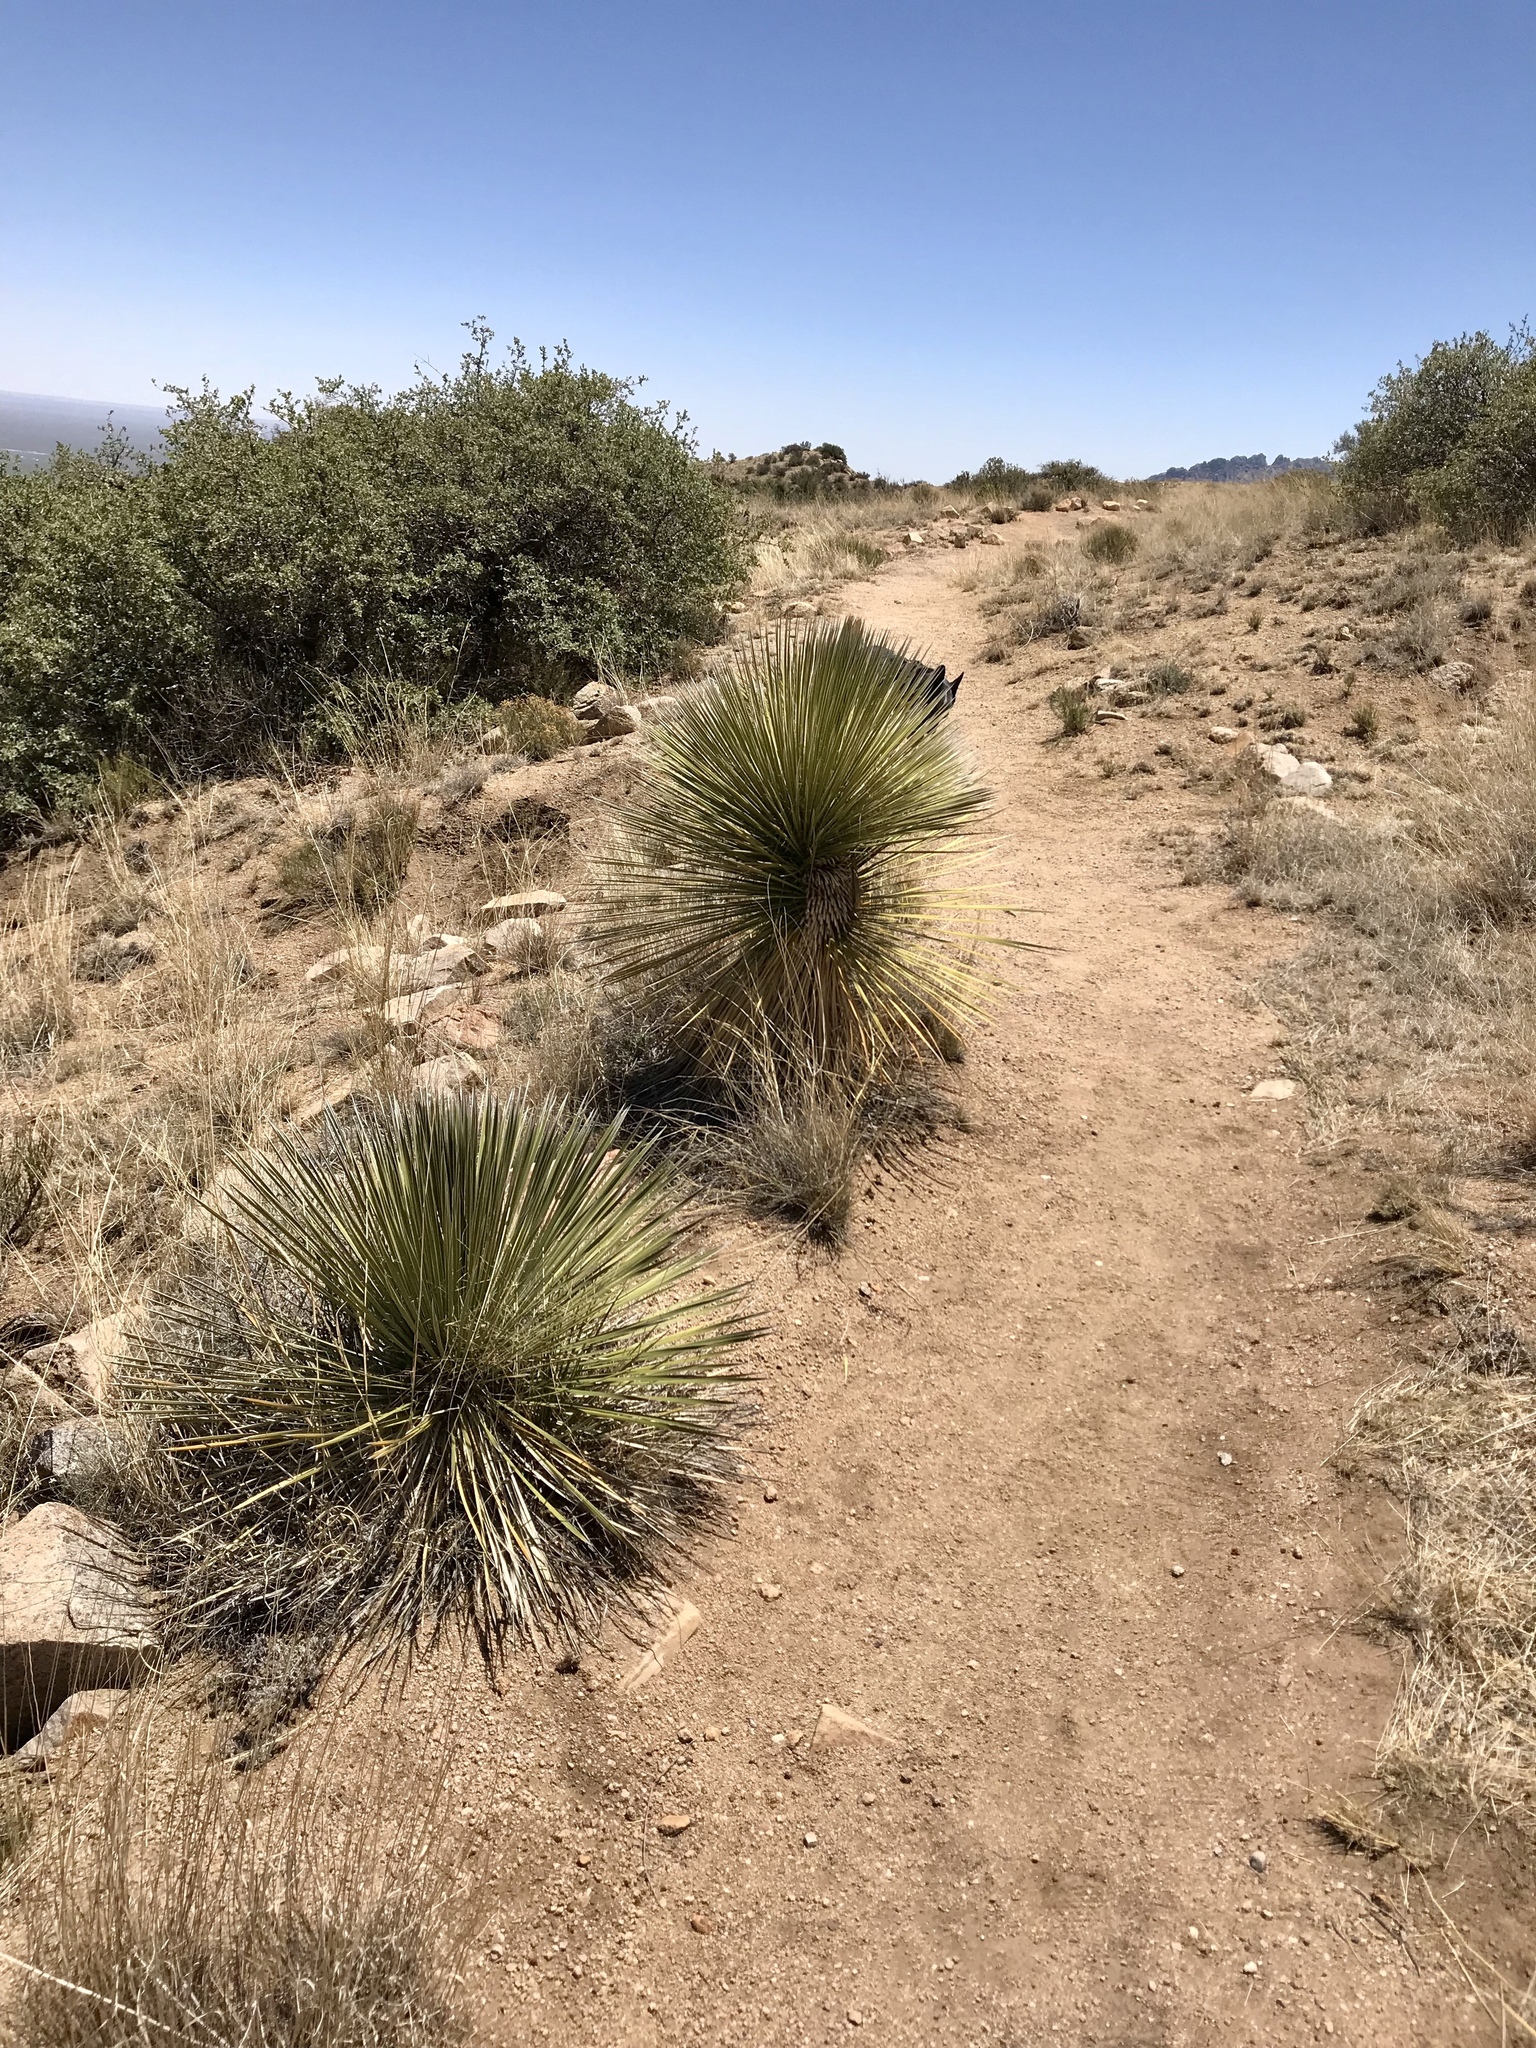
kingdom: Plantae
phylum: Tracheophyta
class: Liliopsida
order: Asparagales
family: Asparagaceae
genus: Yucca
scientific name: Yucca elata
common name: Palmella
